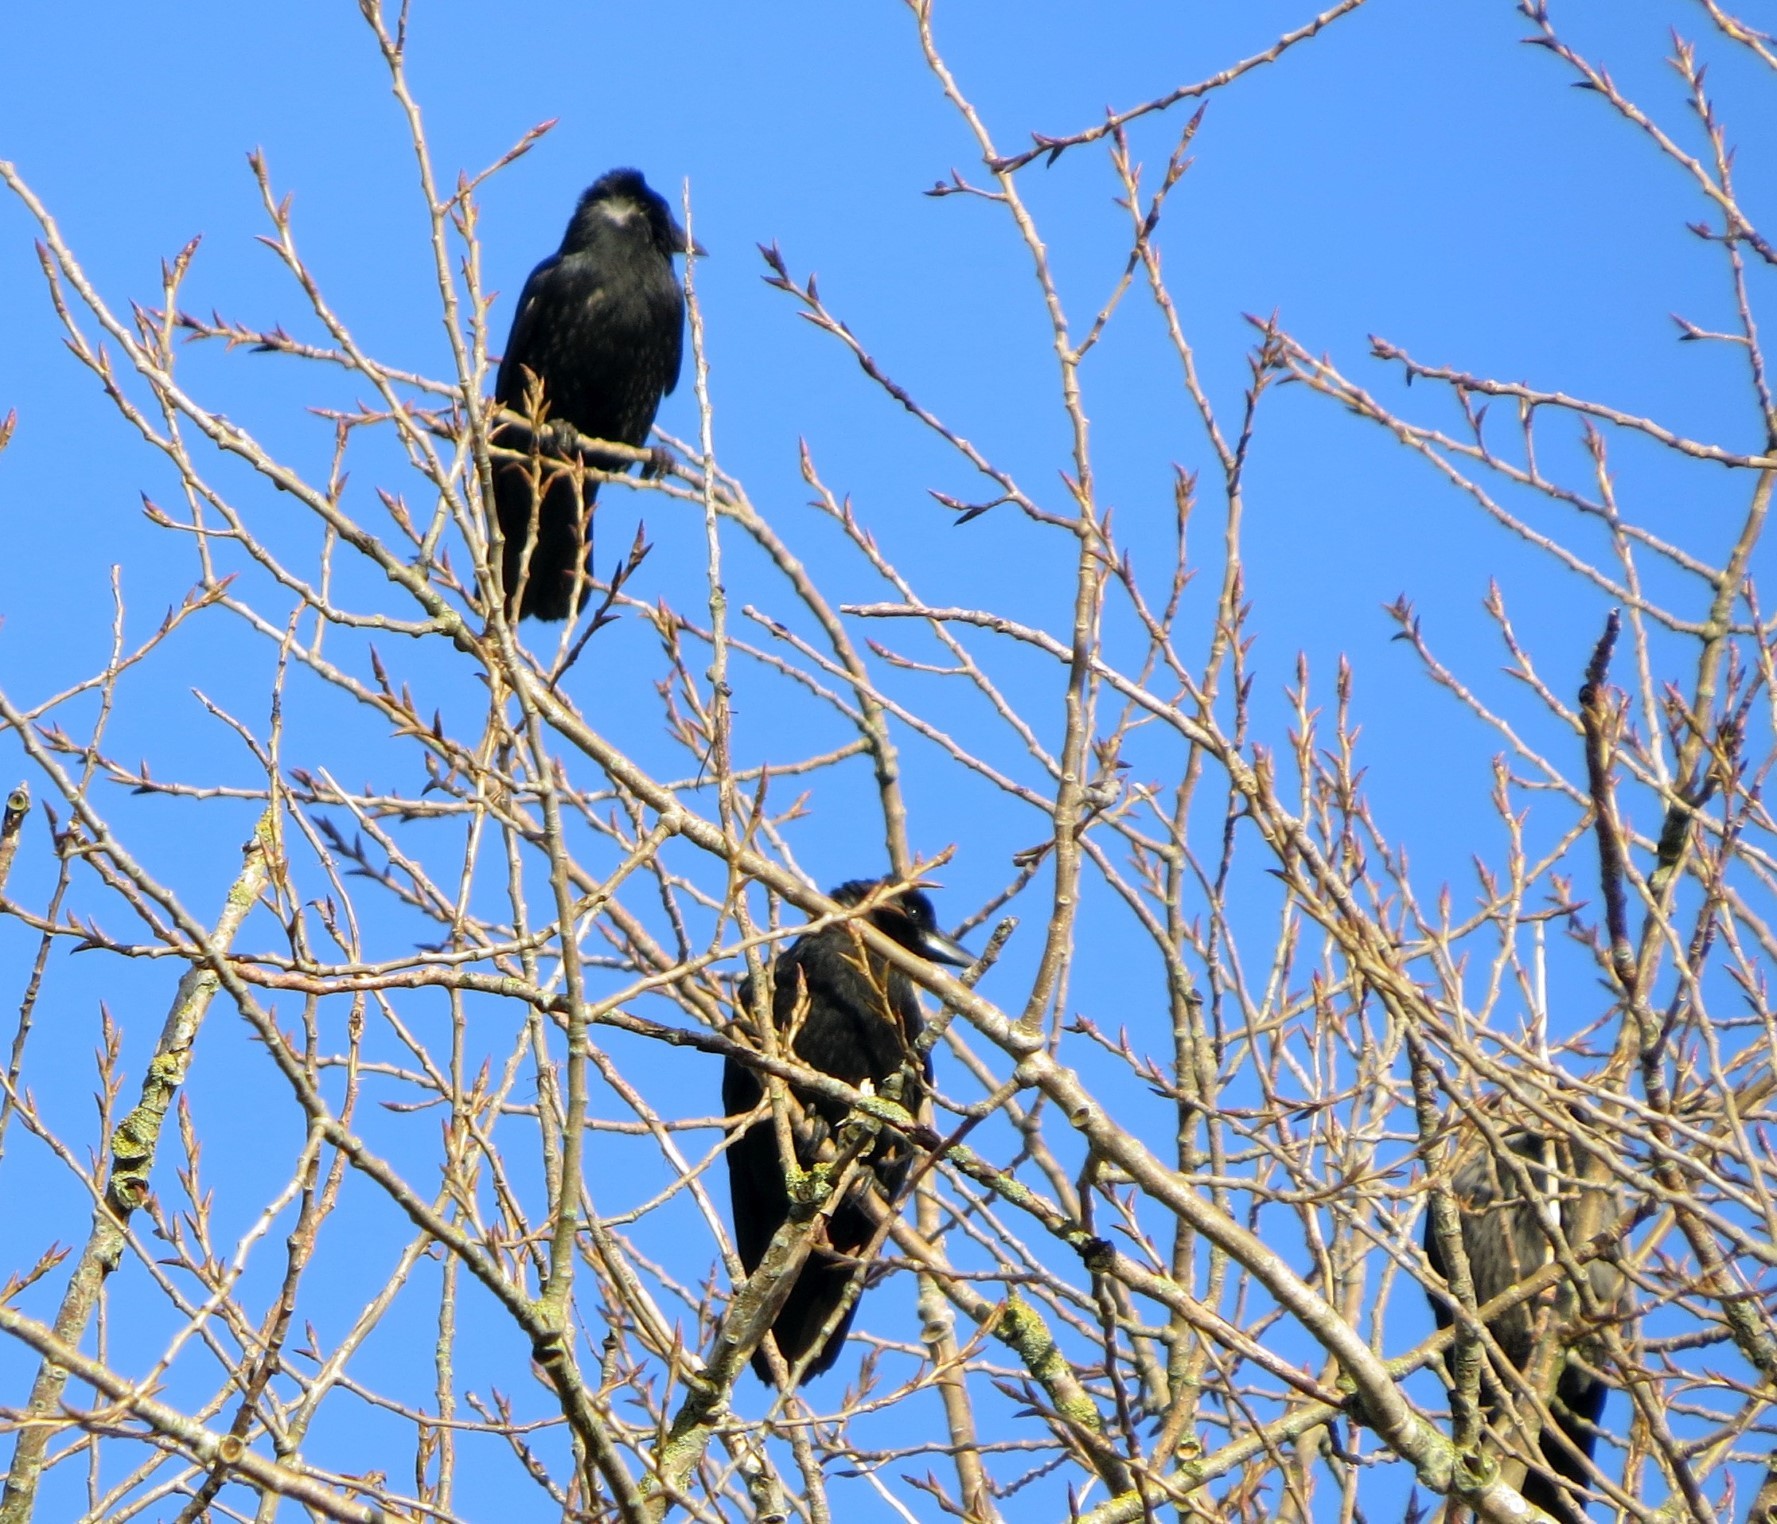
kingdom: Animalia
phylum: Chordata
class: Aves
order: Passeriformes
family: Corvidae
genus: Corvus
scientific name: Corvus corone
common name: Carrion crow
